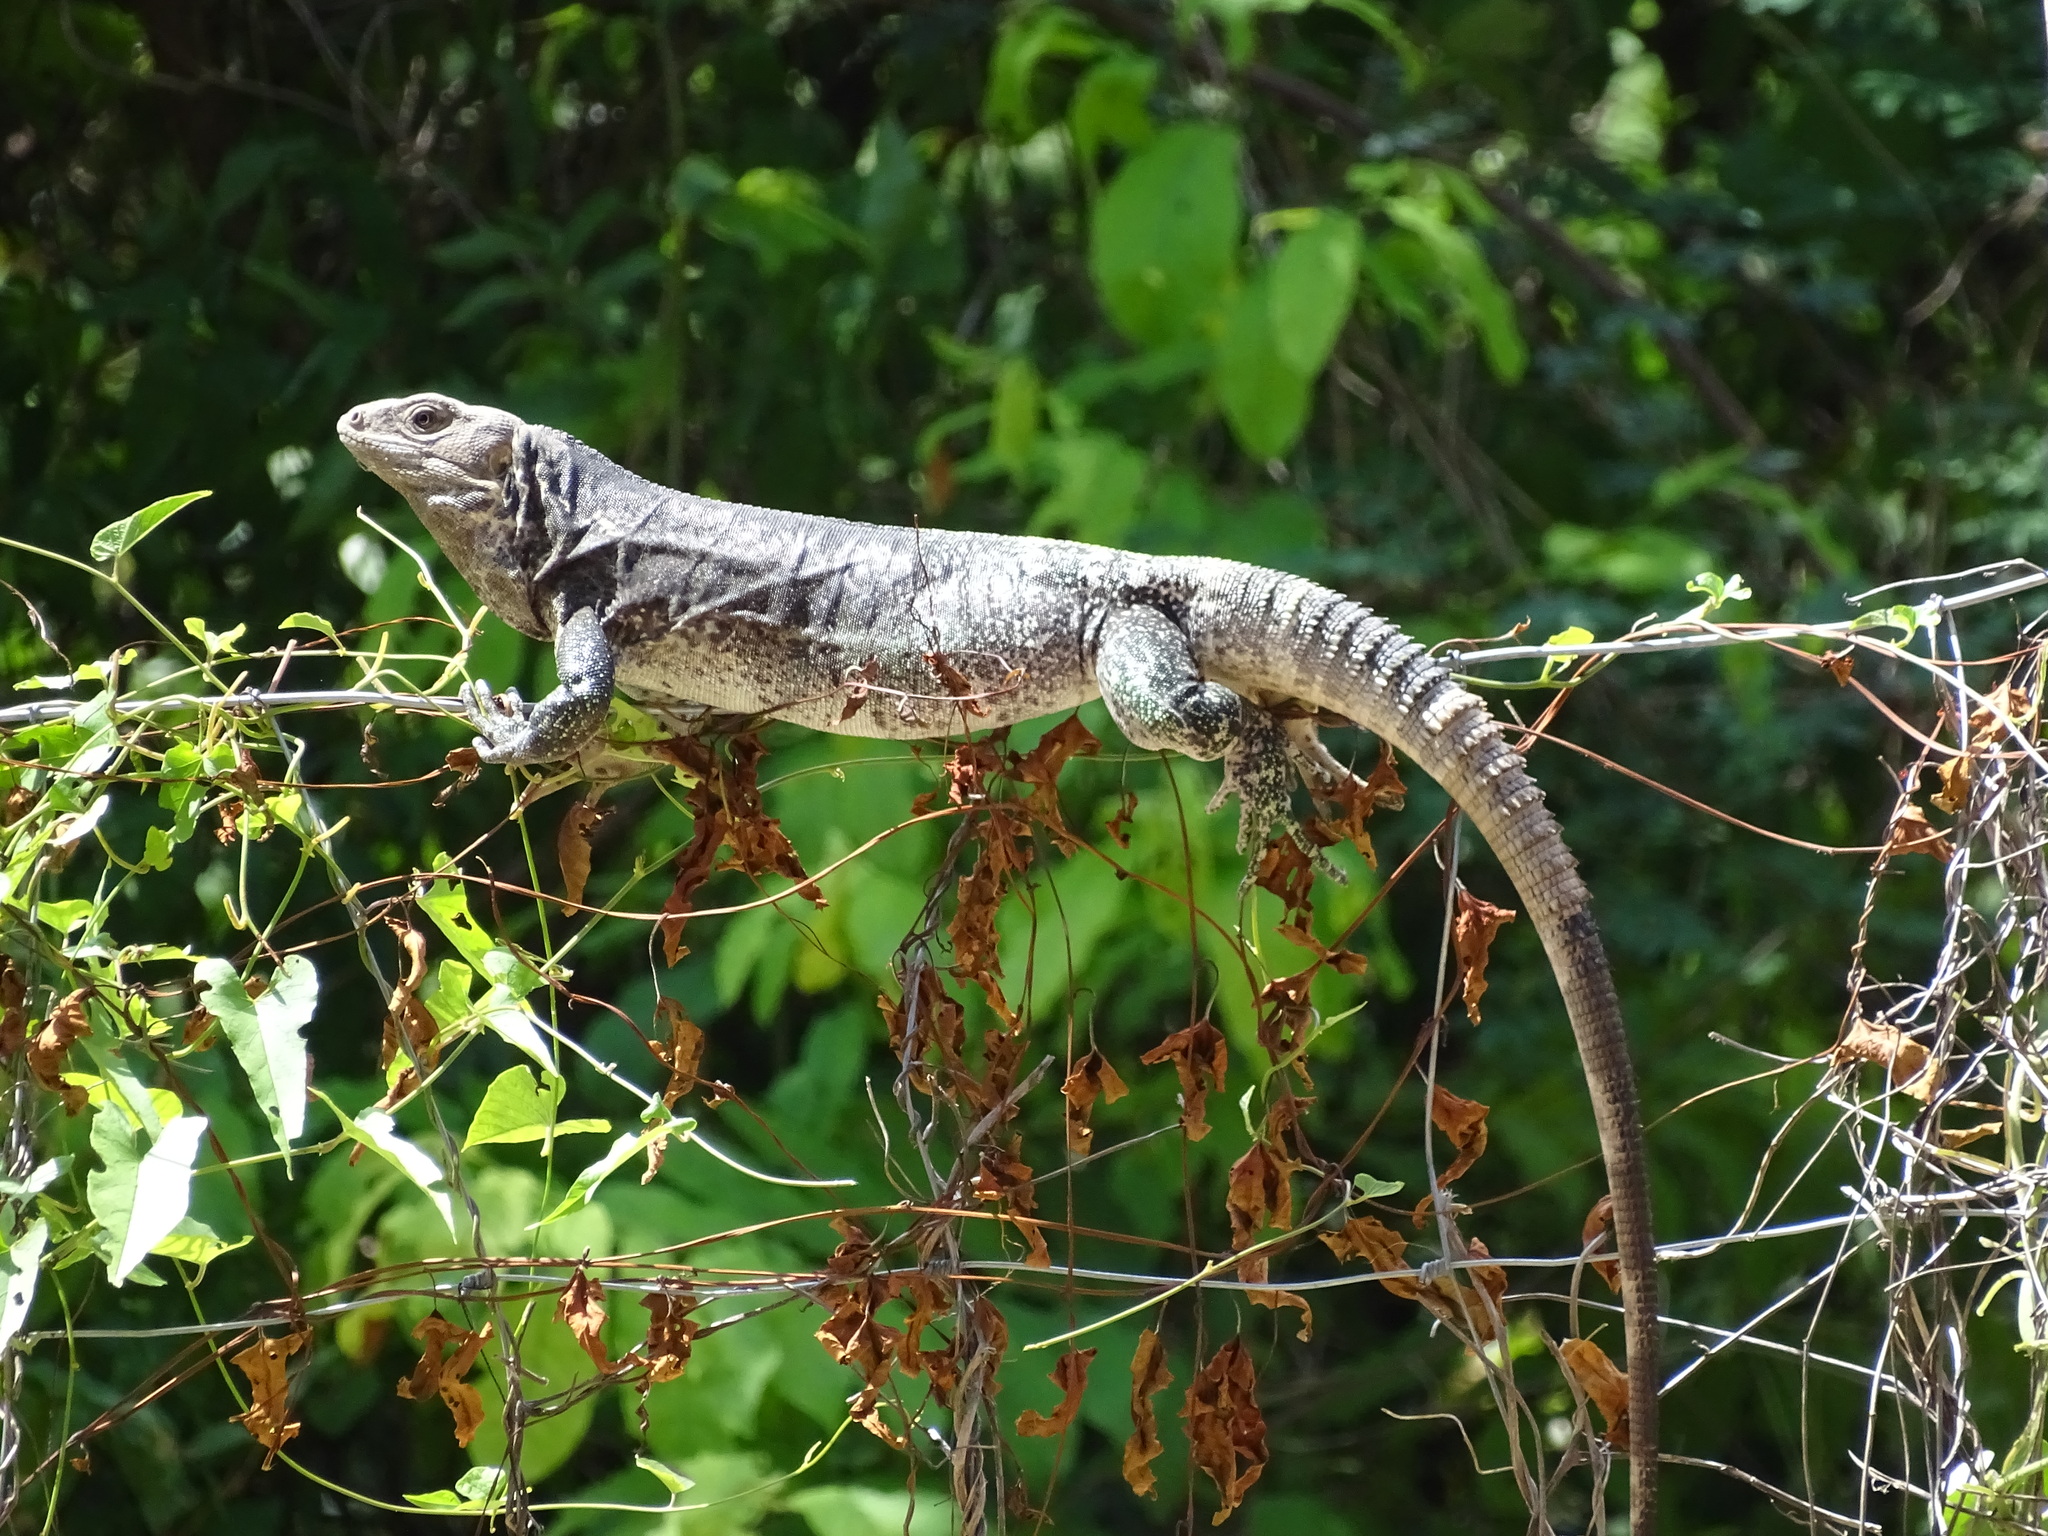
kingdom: Animalia
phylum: Chordata
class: Squamata
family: Iguanidae
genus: Ctenosaura
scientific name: Ctenosaura pectinata
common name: Guerreran spiny-tailed iguana
